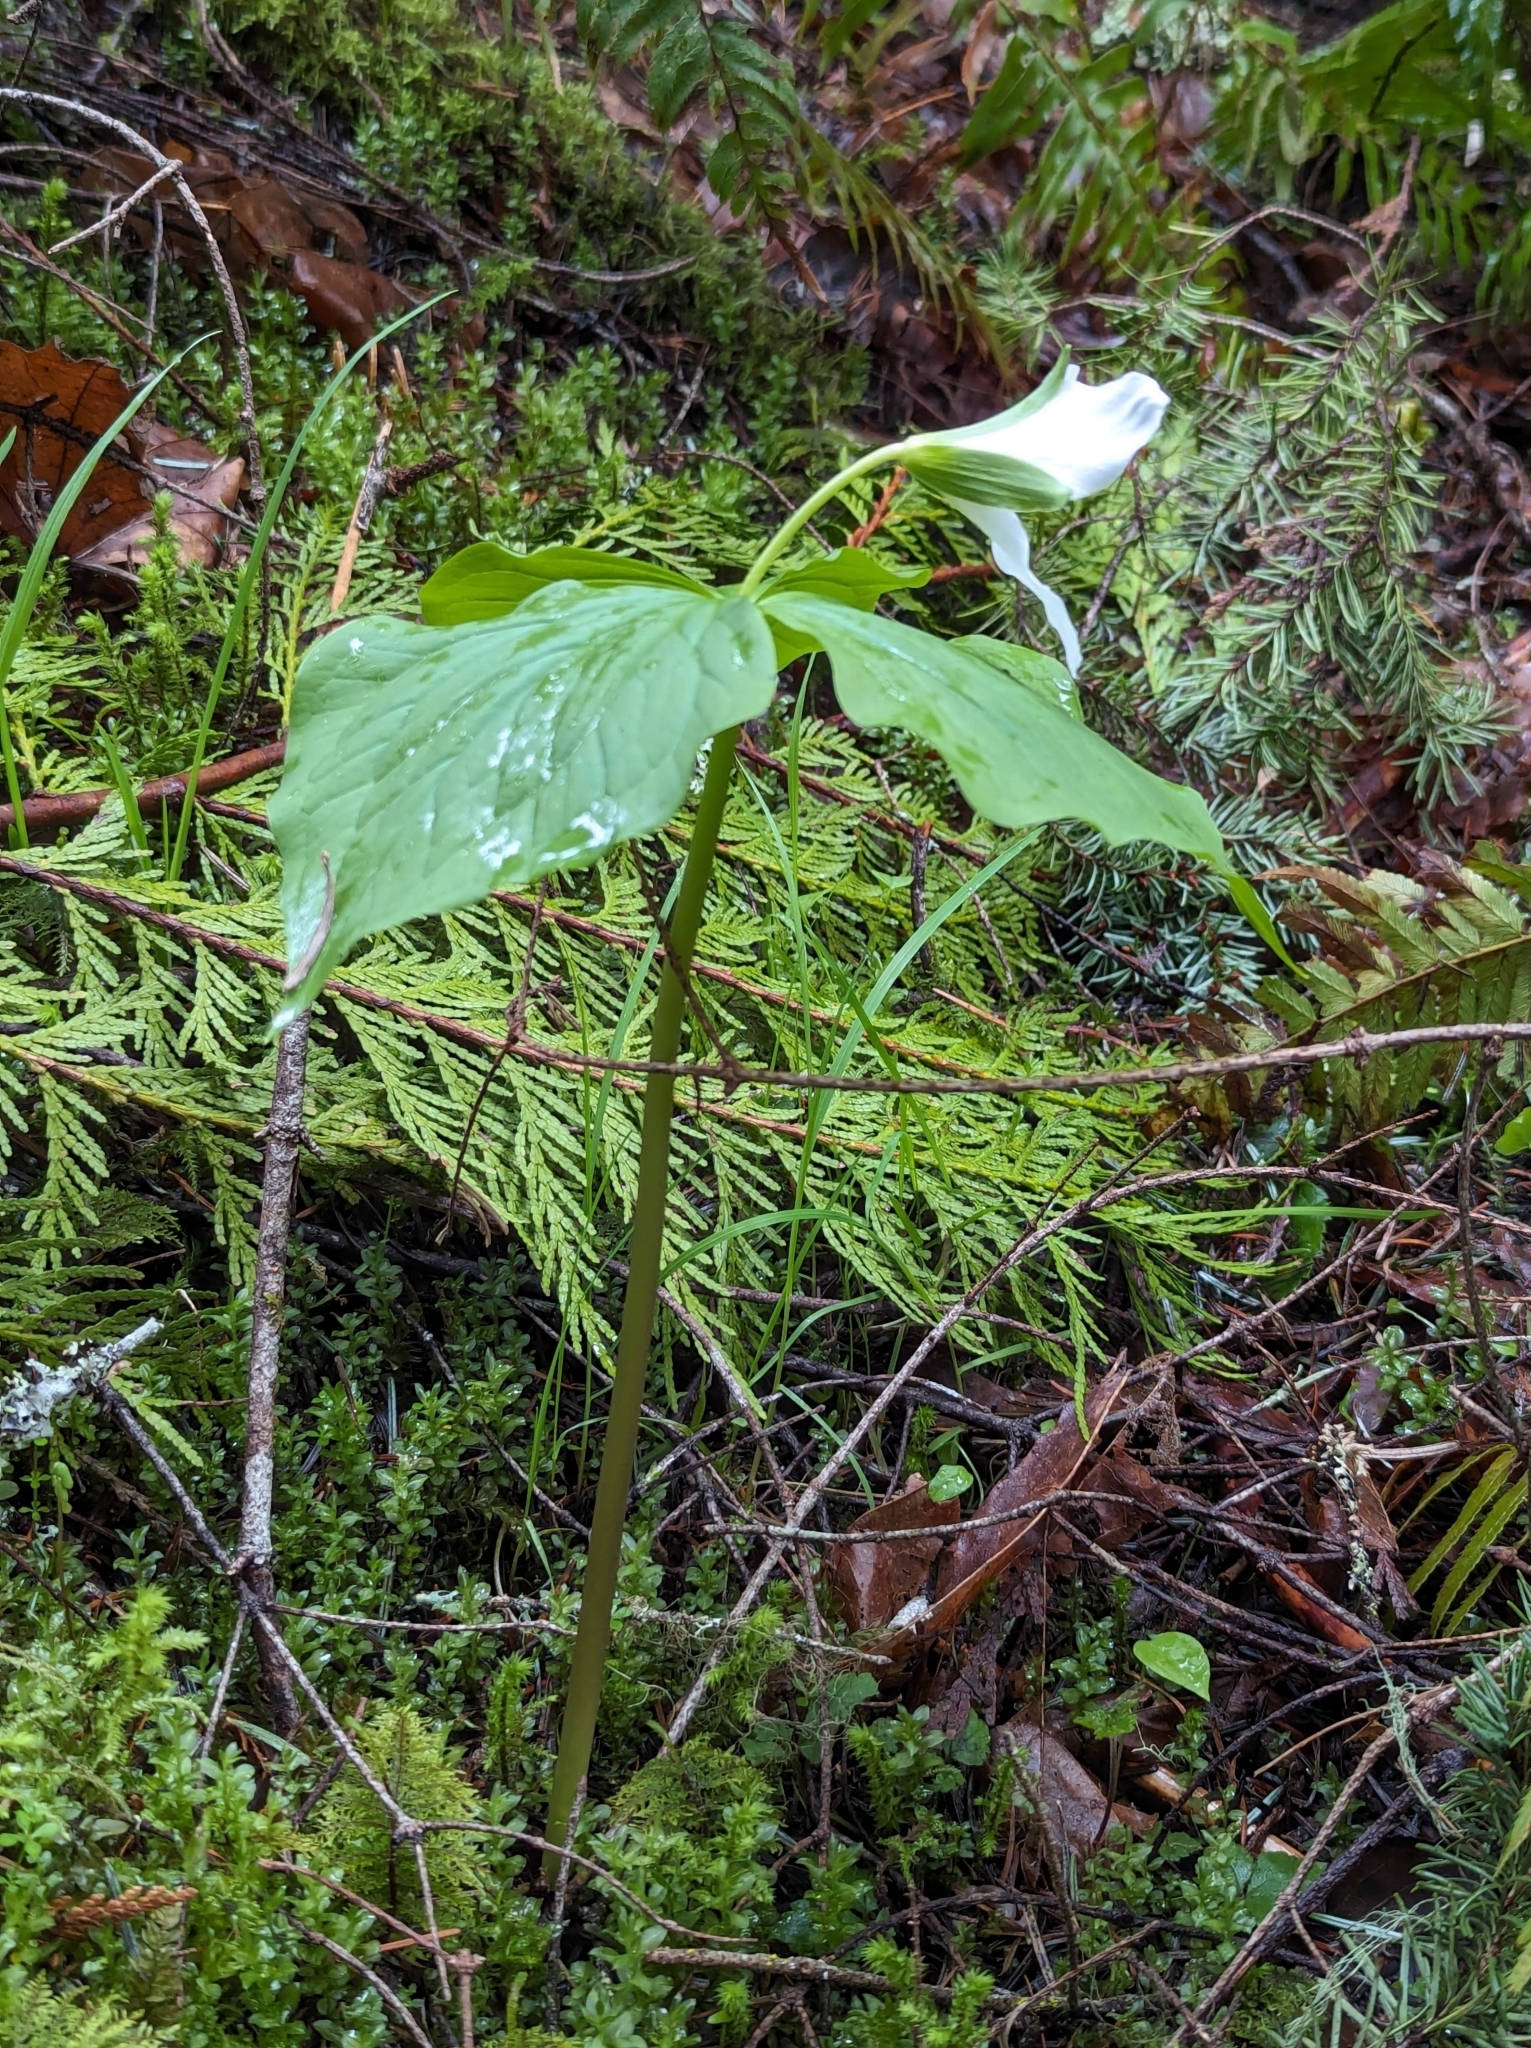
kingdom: Plantae
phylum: Tracheophyta
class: Liliopsida
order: Liliales
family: Melanthiaceae
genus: Trillium
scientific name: Trillium ovatum
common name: Pacific trillium
